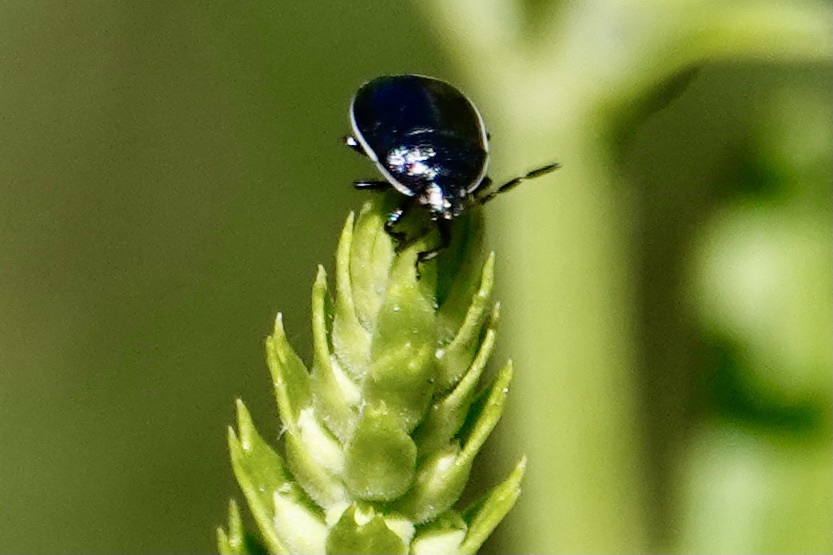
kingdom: Animalia
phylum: Arthropoda
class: Insecta
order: Hemiptera
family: Cydnidae
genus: Sehirus
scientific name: Sehirus cinctus
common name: White-margined burrower bug
